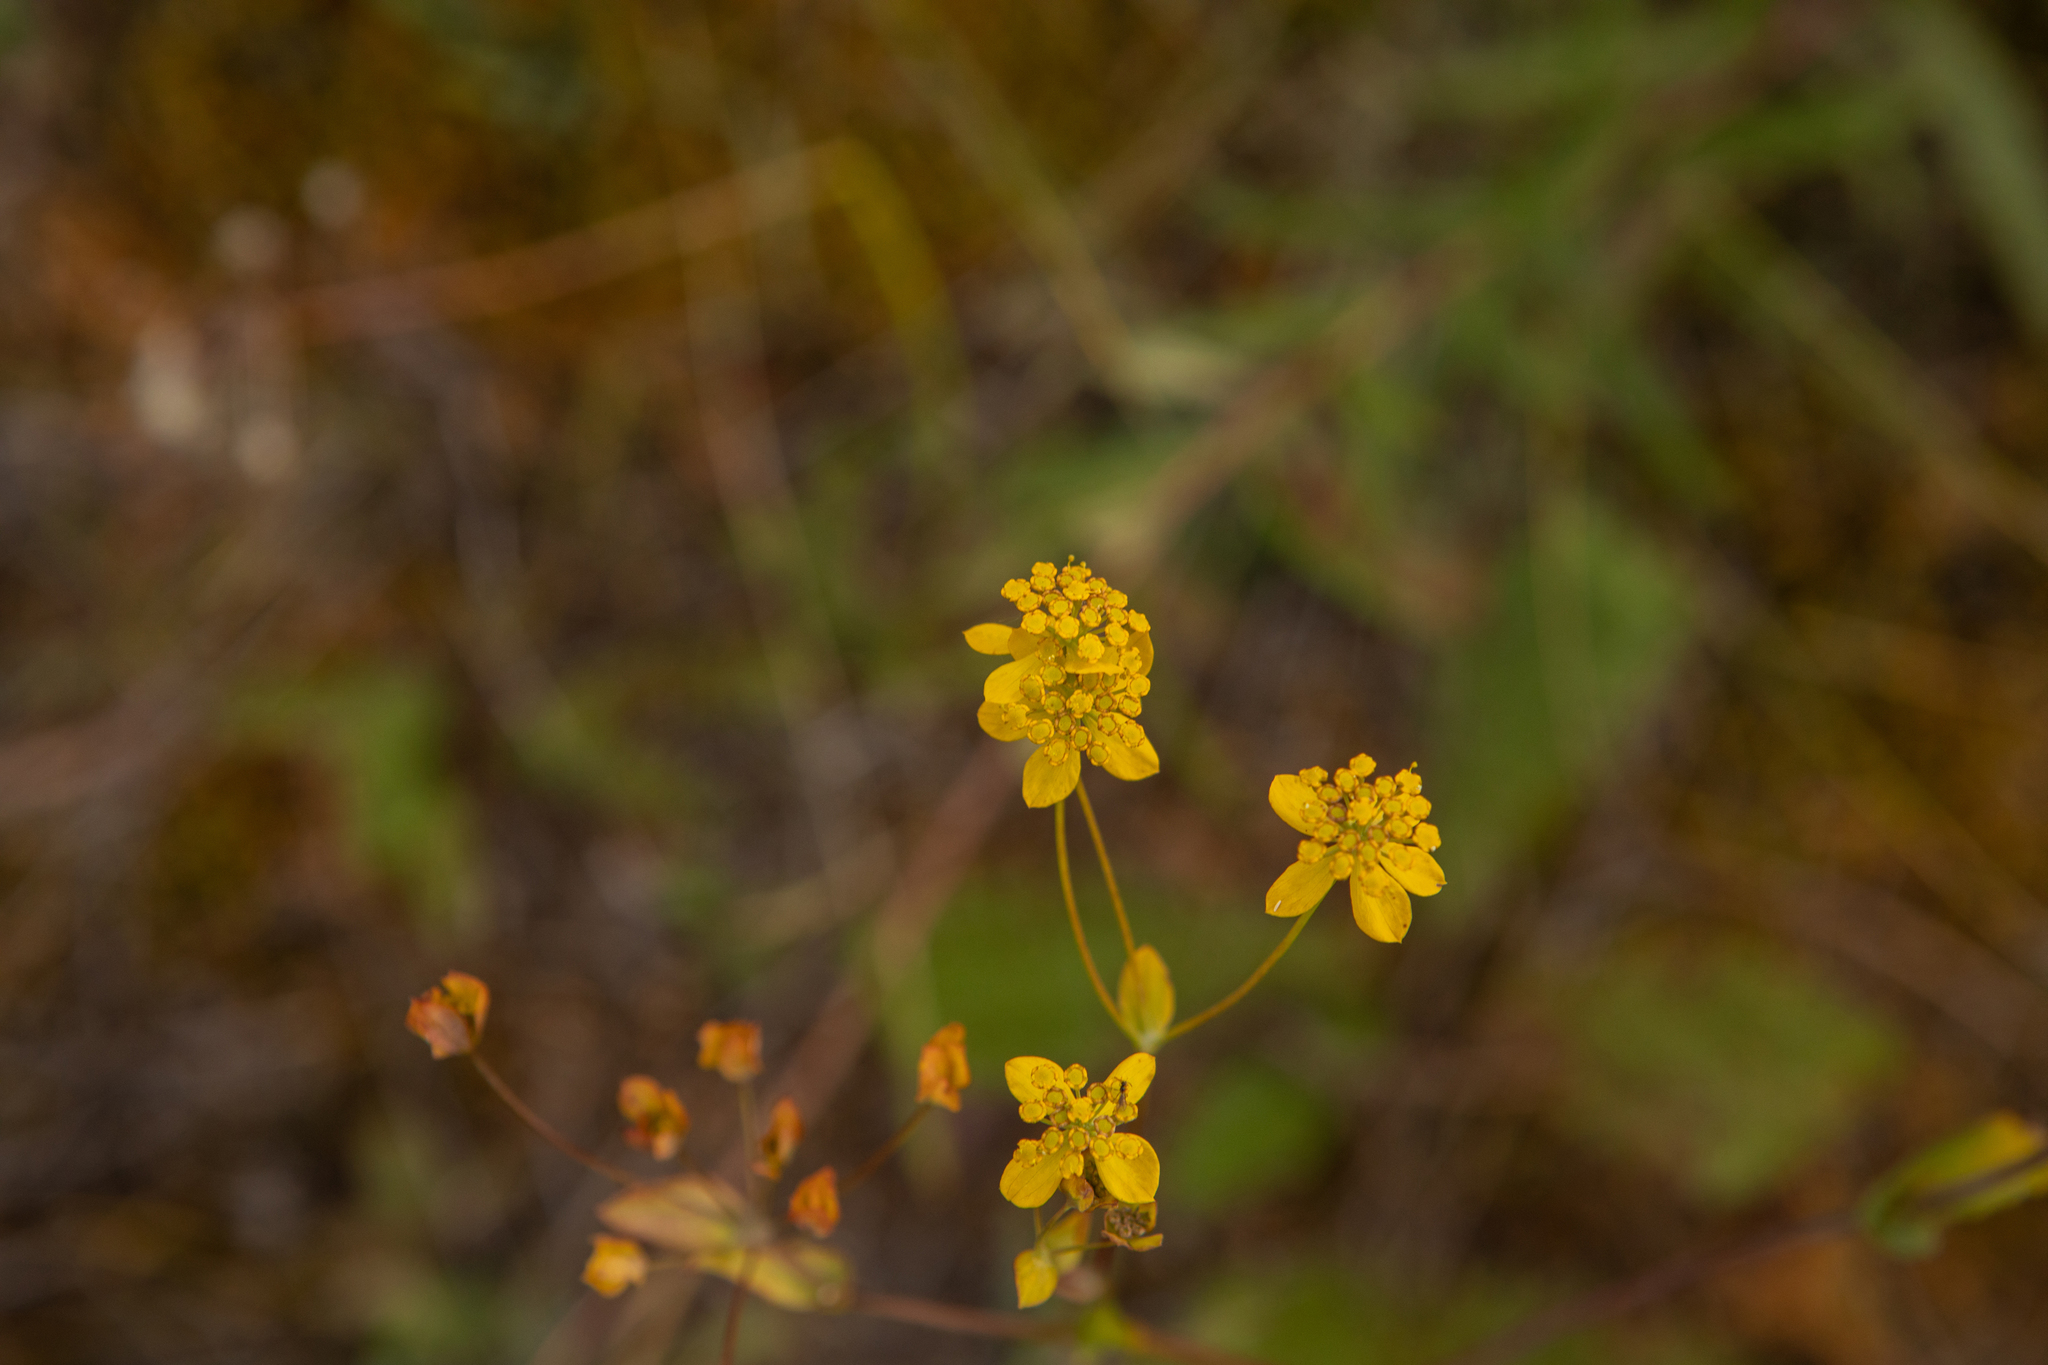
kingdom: Plantae
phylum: Tracheophyta
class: Magnoliopsida
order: Apiales
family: Apiaceae
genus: Bupleurum
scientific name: Bupleurum aureum
